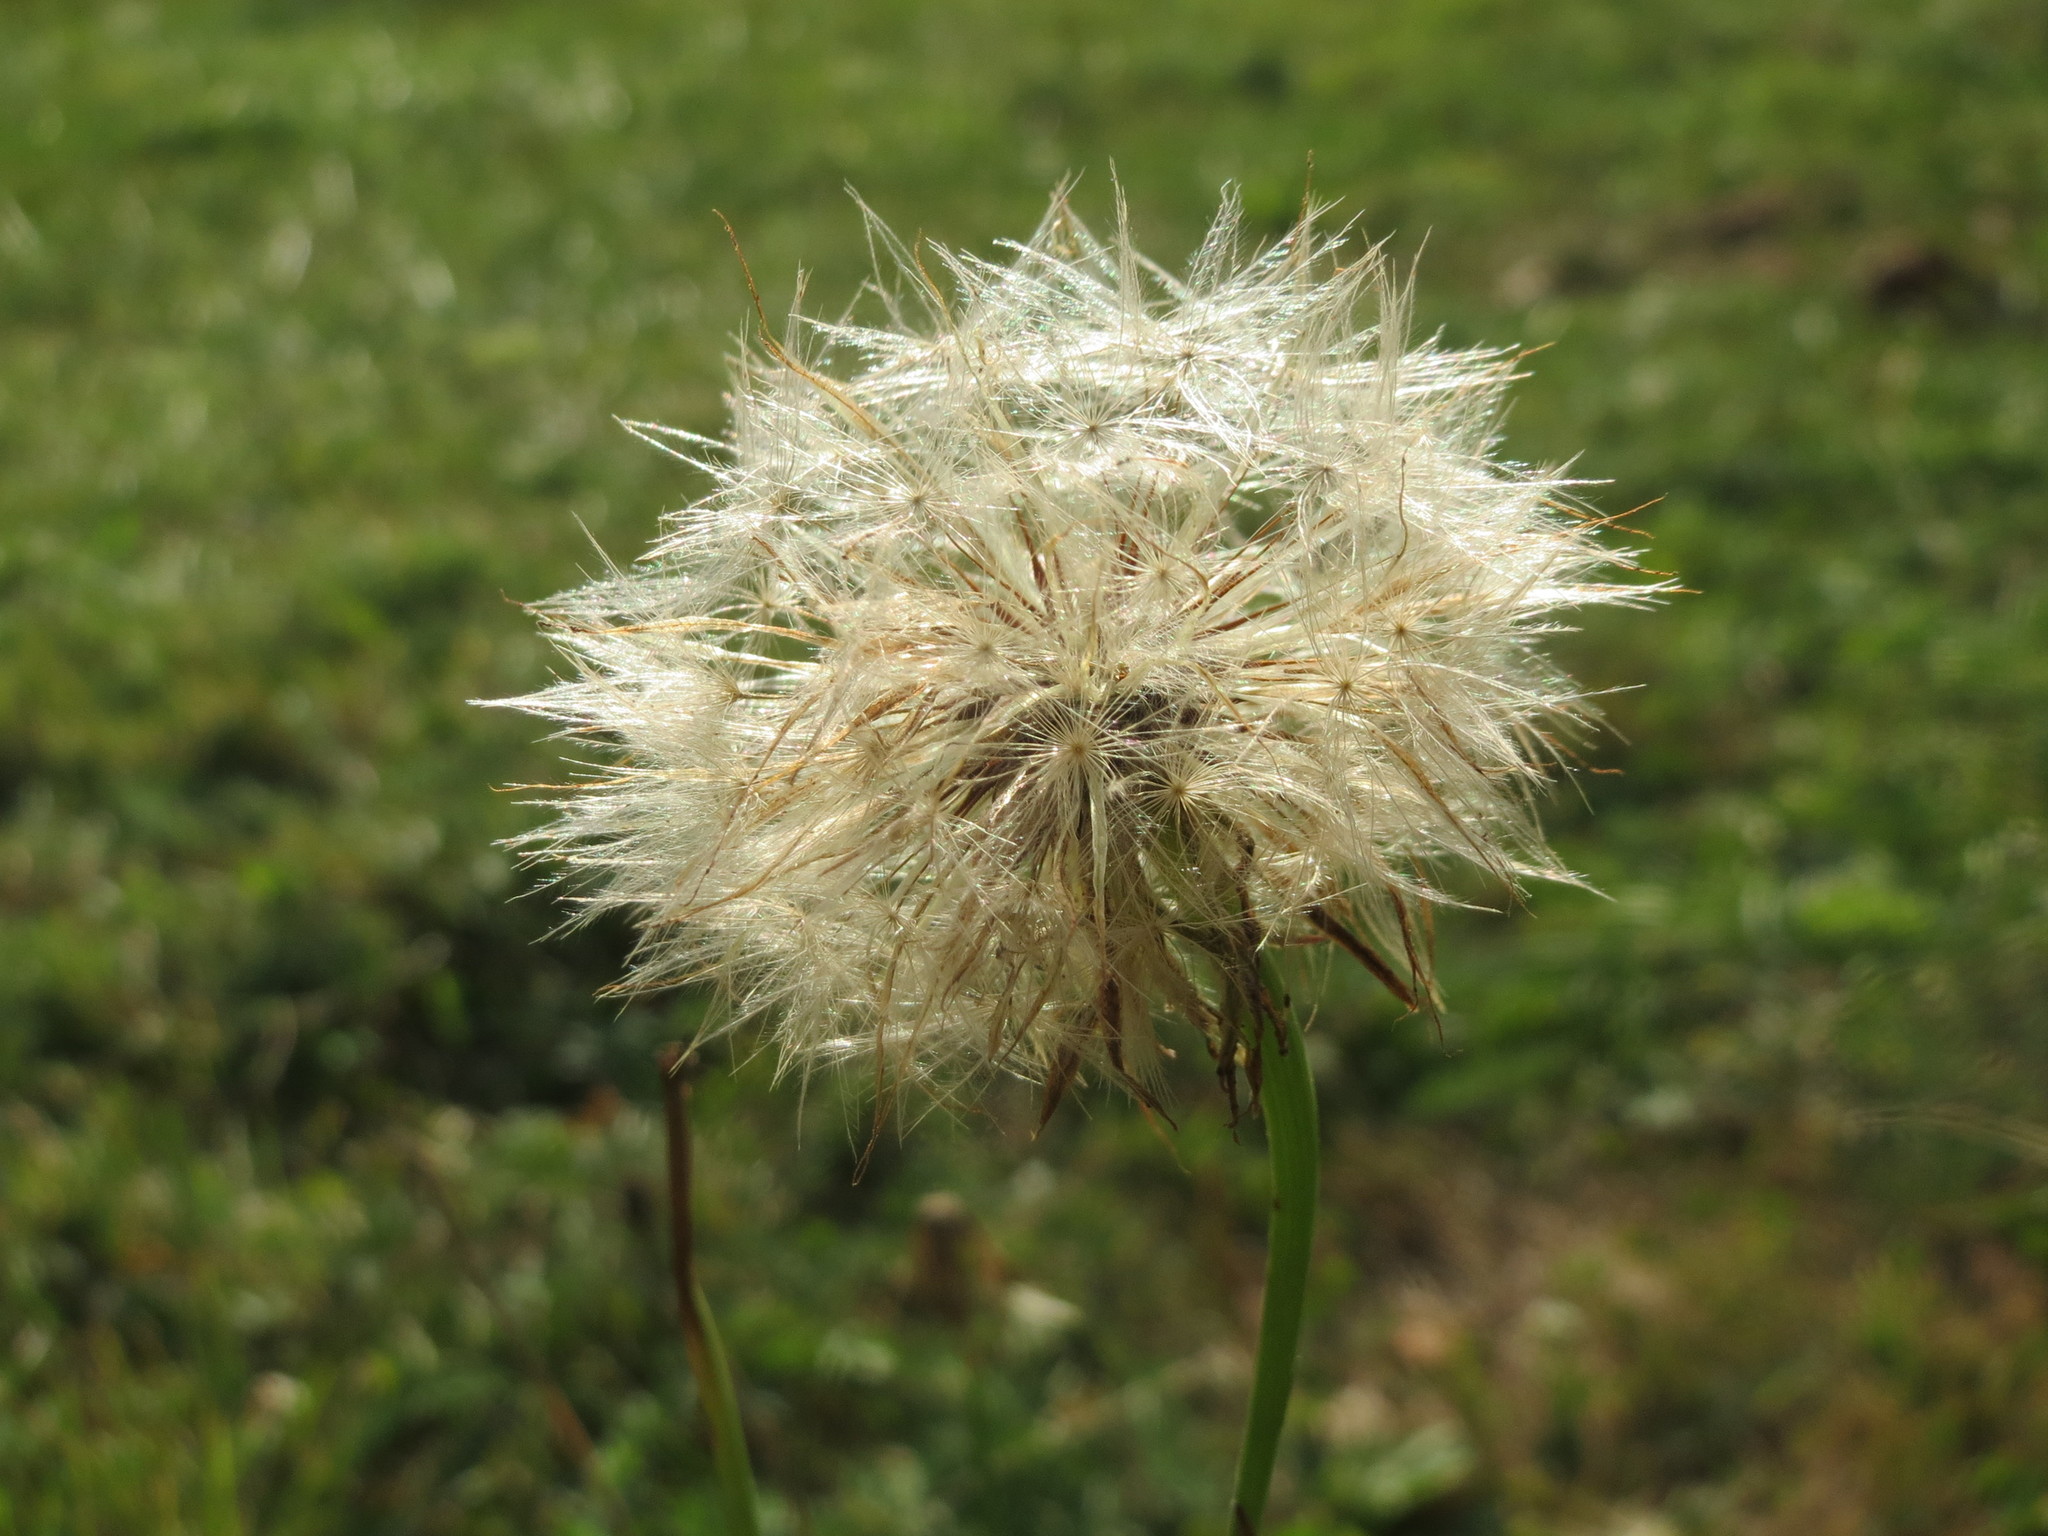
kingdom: Plantae
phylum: Tracheophyta
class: Magnoliopsida
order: Asterales
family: Asteraceae
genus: Hypochaeris
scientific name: Hypochaeris radicata
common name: Flatweed
